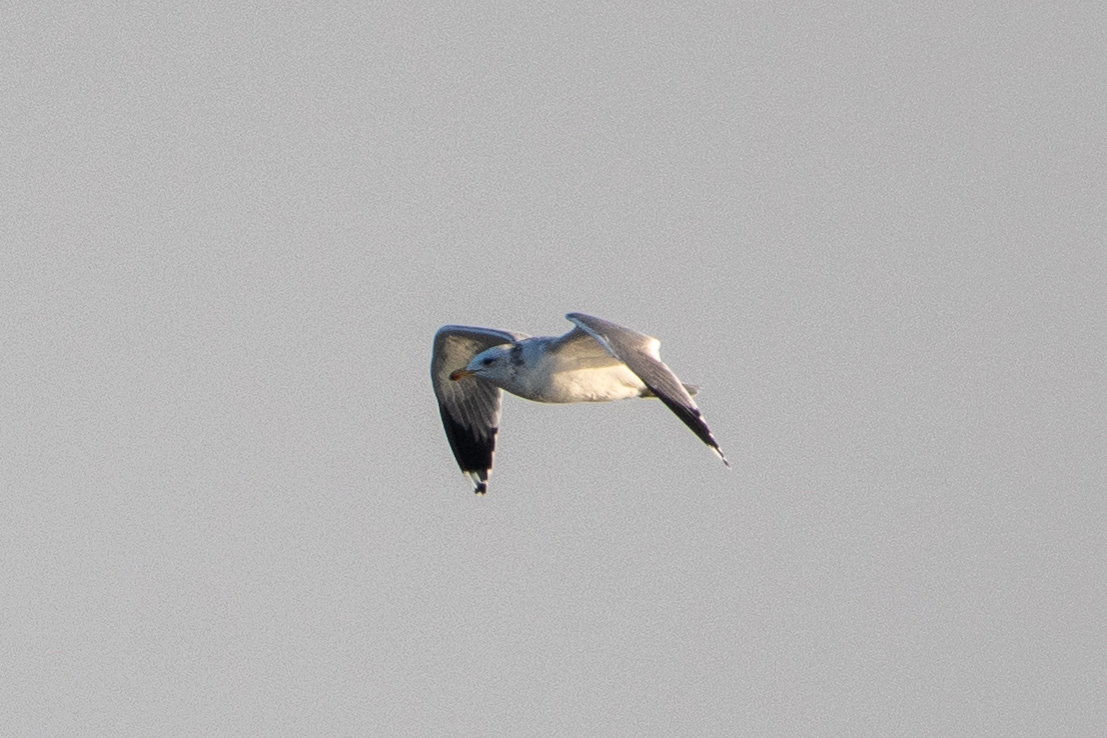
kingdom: Animalia
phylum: Chordata
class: Aves
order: Charadriiformes
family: Laridae
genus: Larus
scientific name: Larus californicus
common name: California gull
